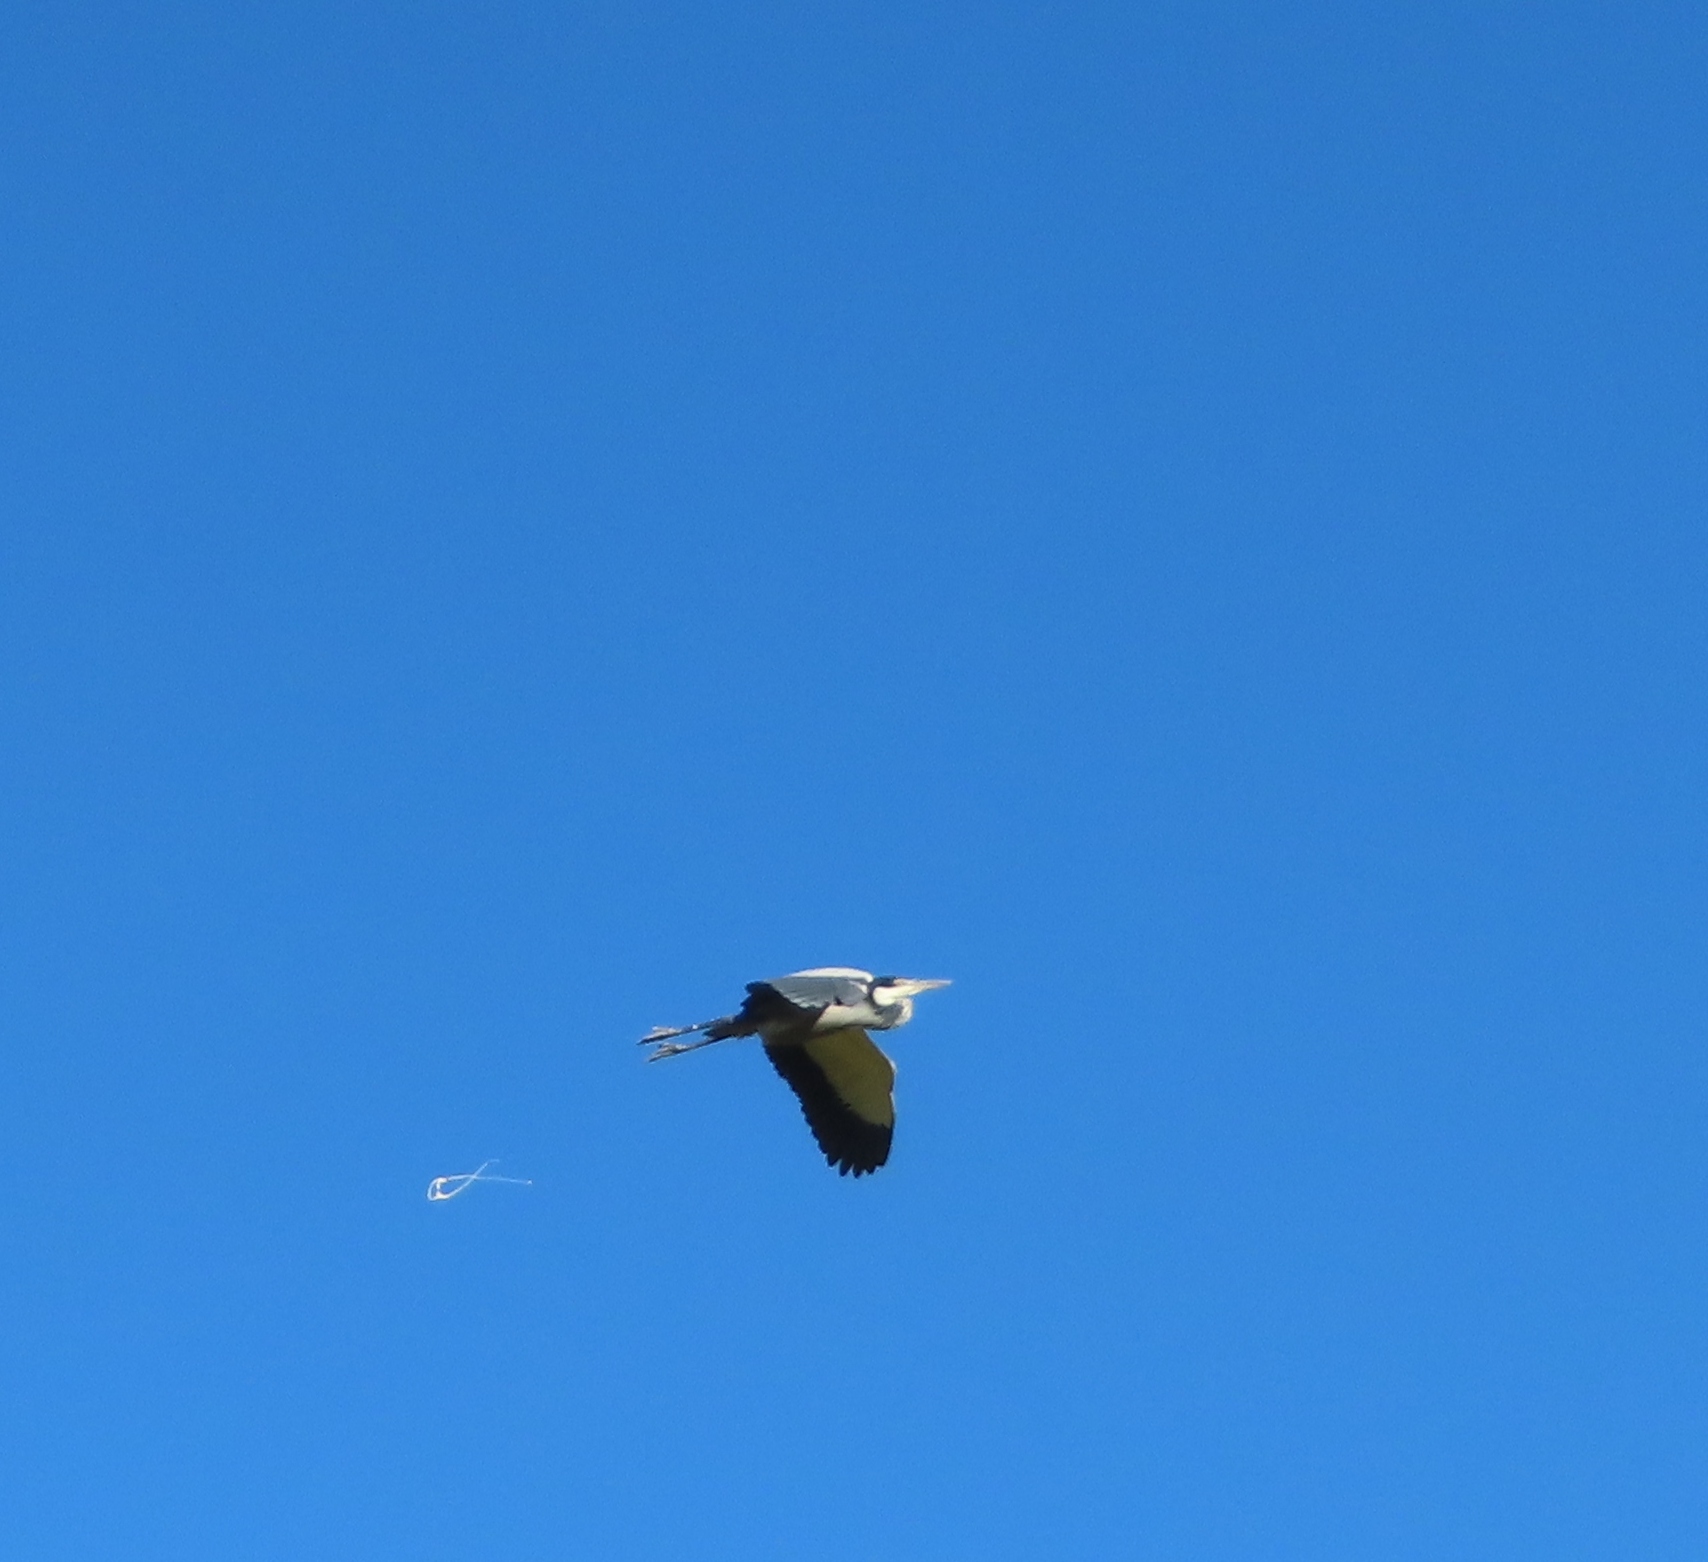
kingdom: Animalia
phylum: Chordata
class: Aves
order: Pelecaniformes
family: Ardeidae
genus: Ardea
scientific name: Ardea melanocephala
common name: Black-headed heron
